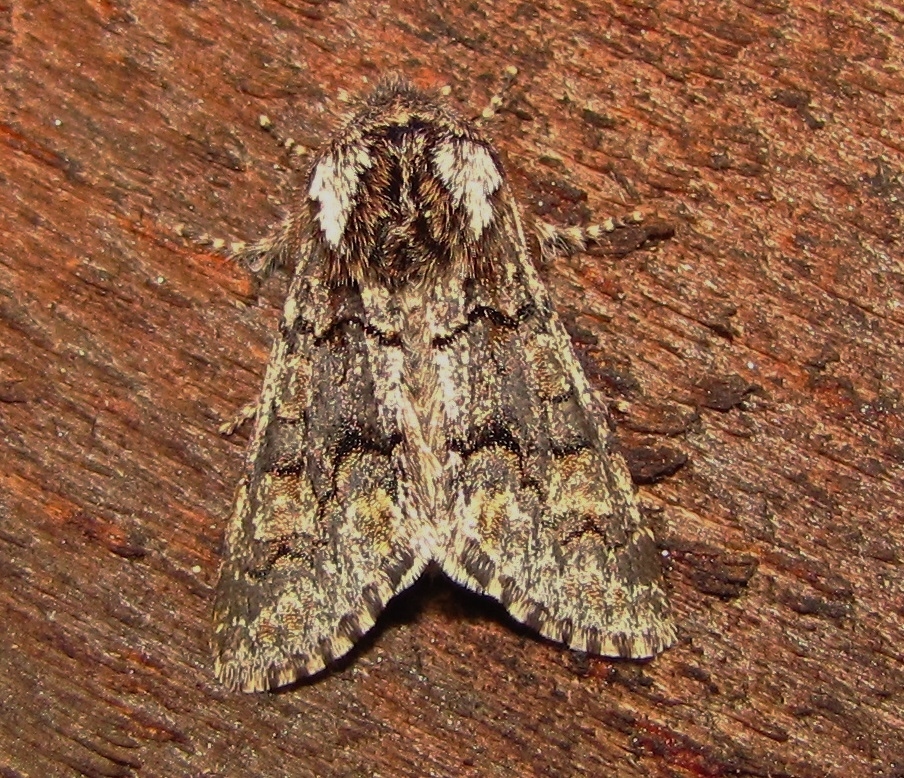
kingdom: Animalia
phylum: Arthropoda
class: Insecta
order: Lepidoptera
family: Noctuidae
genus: Psaphida
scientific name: Psaphida thaxterianus
